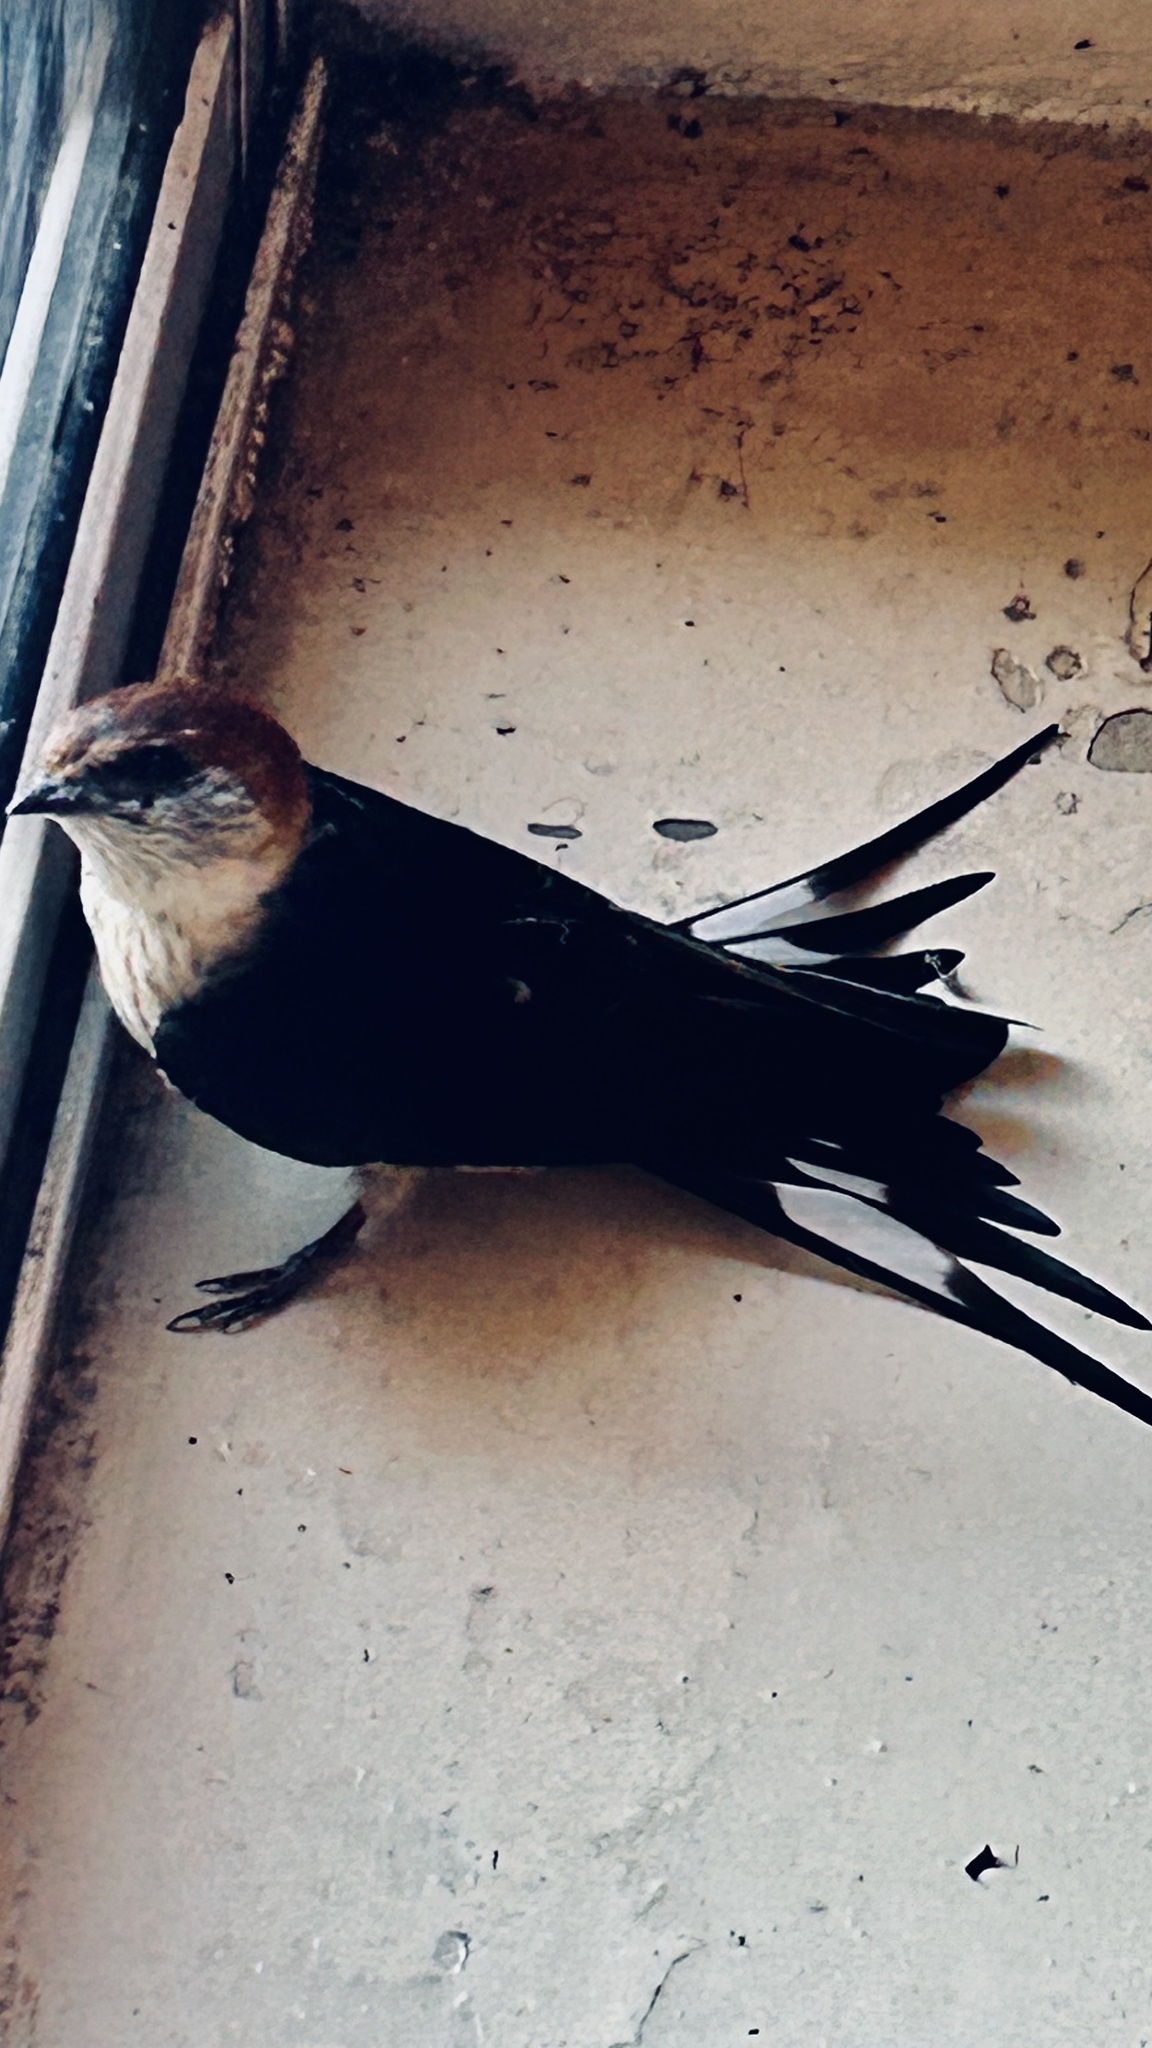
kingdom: Animalia
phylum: Chordata
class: Aves
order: Passeriformes
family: Hirundinidae
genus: Cecropis
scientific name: Cecropis cucullata
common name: Greater striped-swallow
